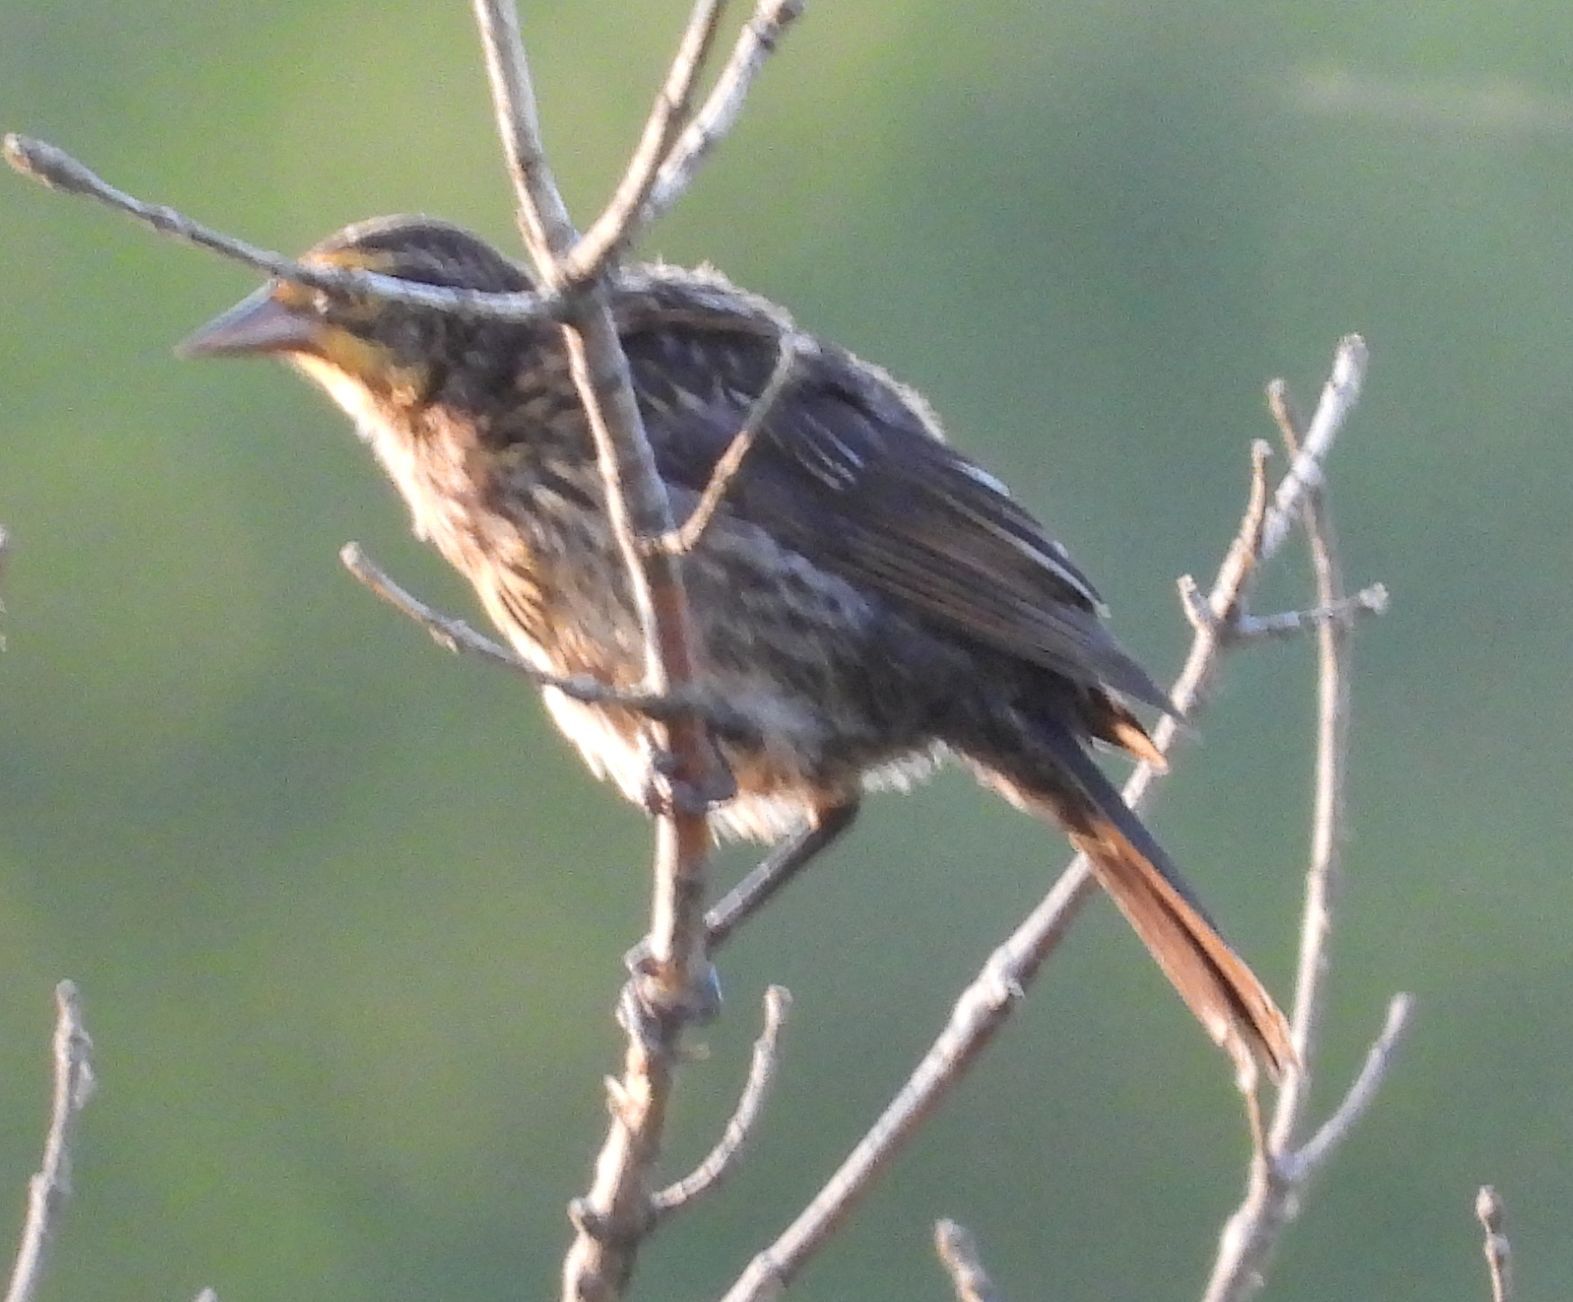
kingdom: Animalia
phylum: Chordata
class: Aves
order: Passeriformes
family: Icteridae
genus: Agelaius
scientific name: Agelaius phoeniceus
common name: Red-winged blackbird
